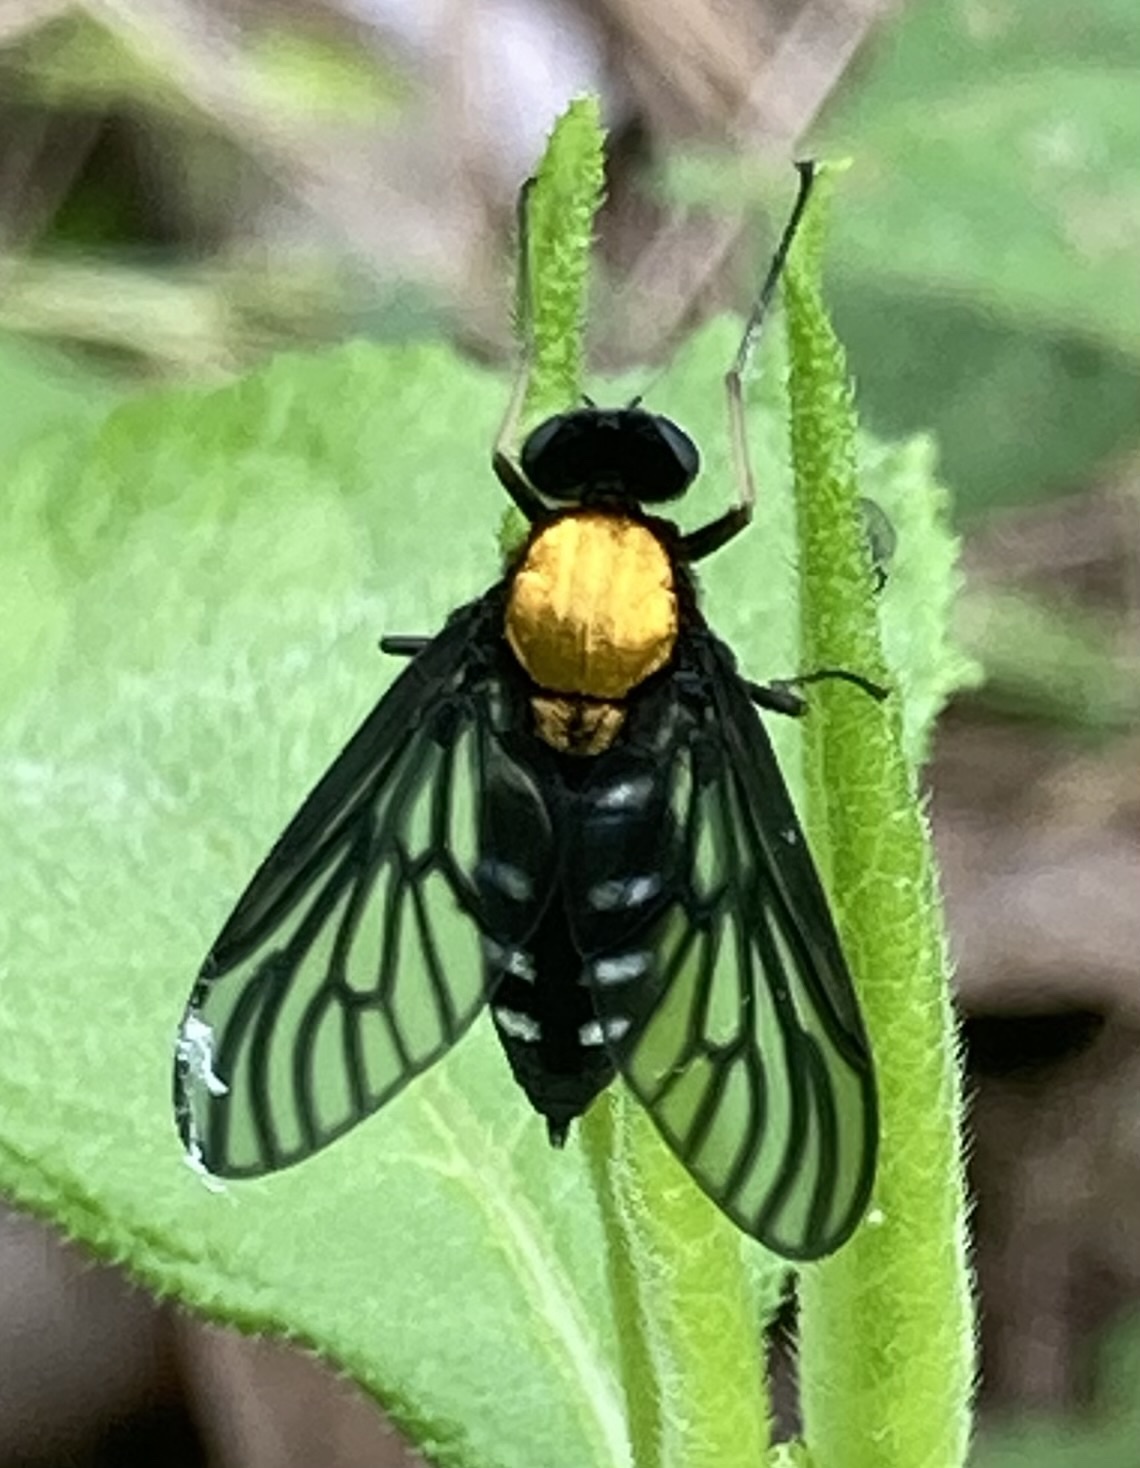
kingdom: Animalia
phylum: Arthropoda
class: Insecta
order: Diptera
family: Rhagionidae
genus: Chrysopilus
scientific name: Chrysopilus thoracicus
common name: Golden-backed snipe fly
